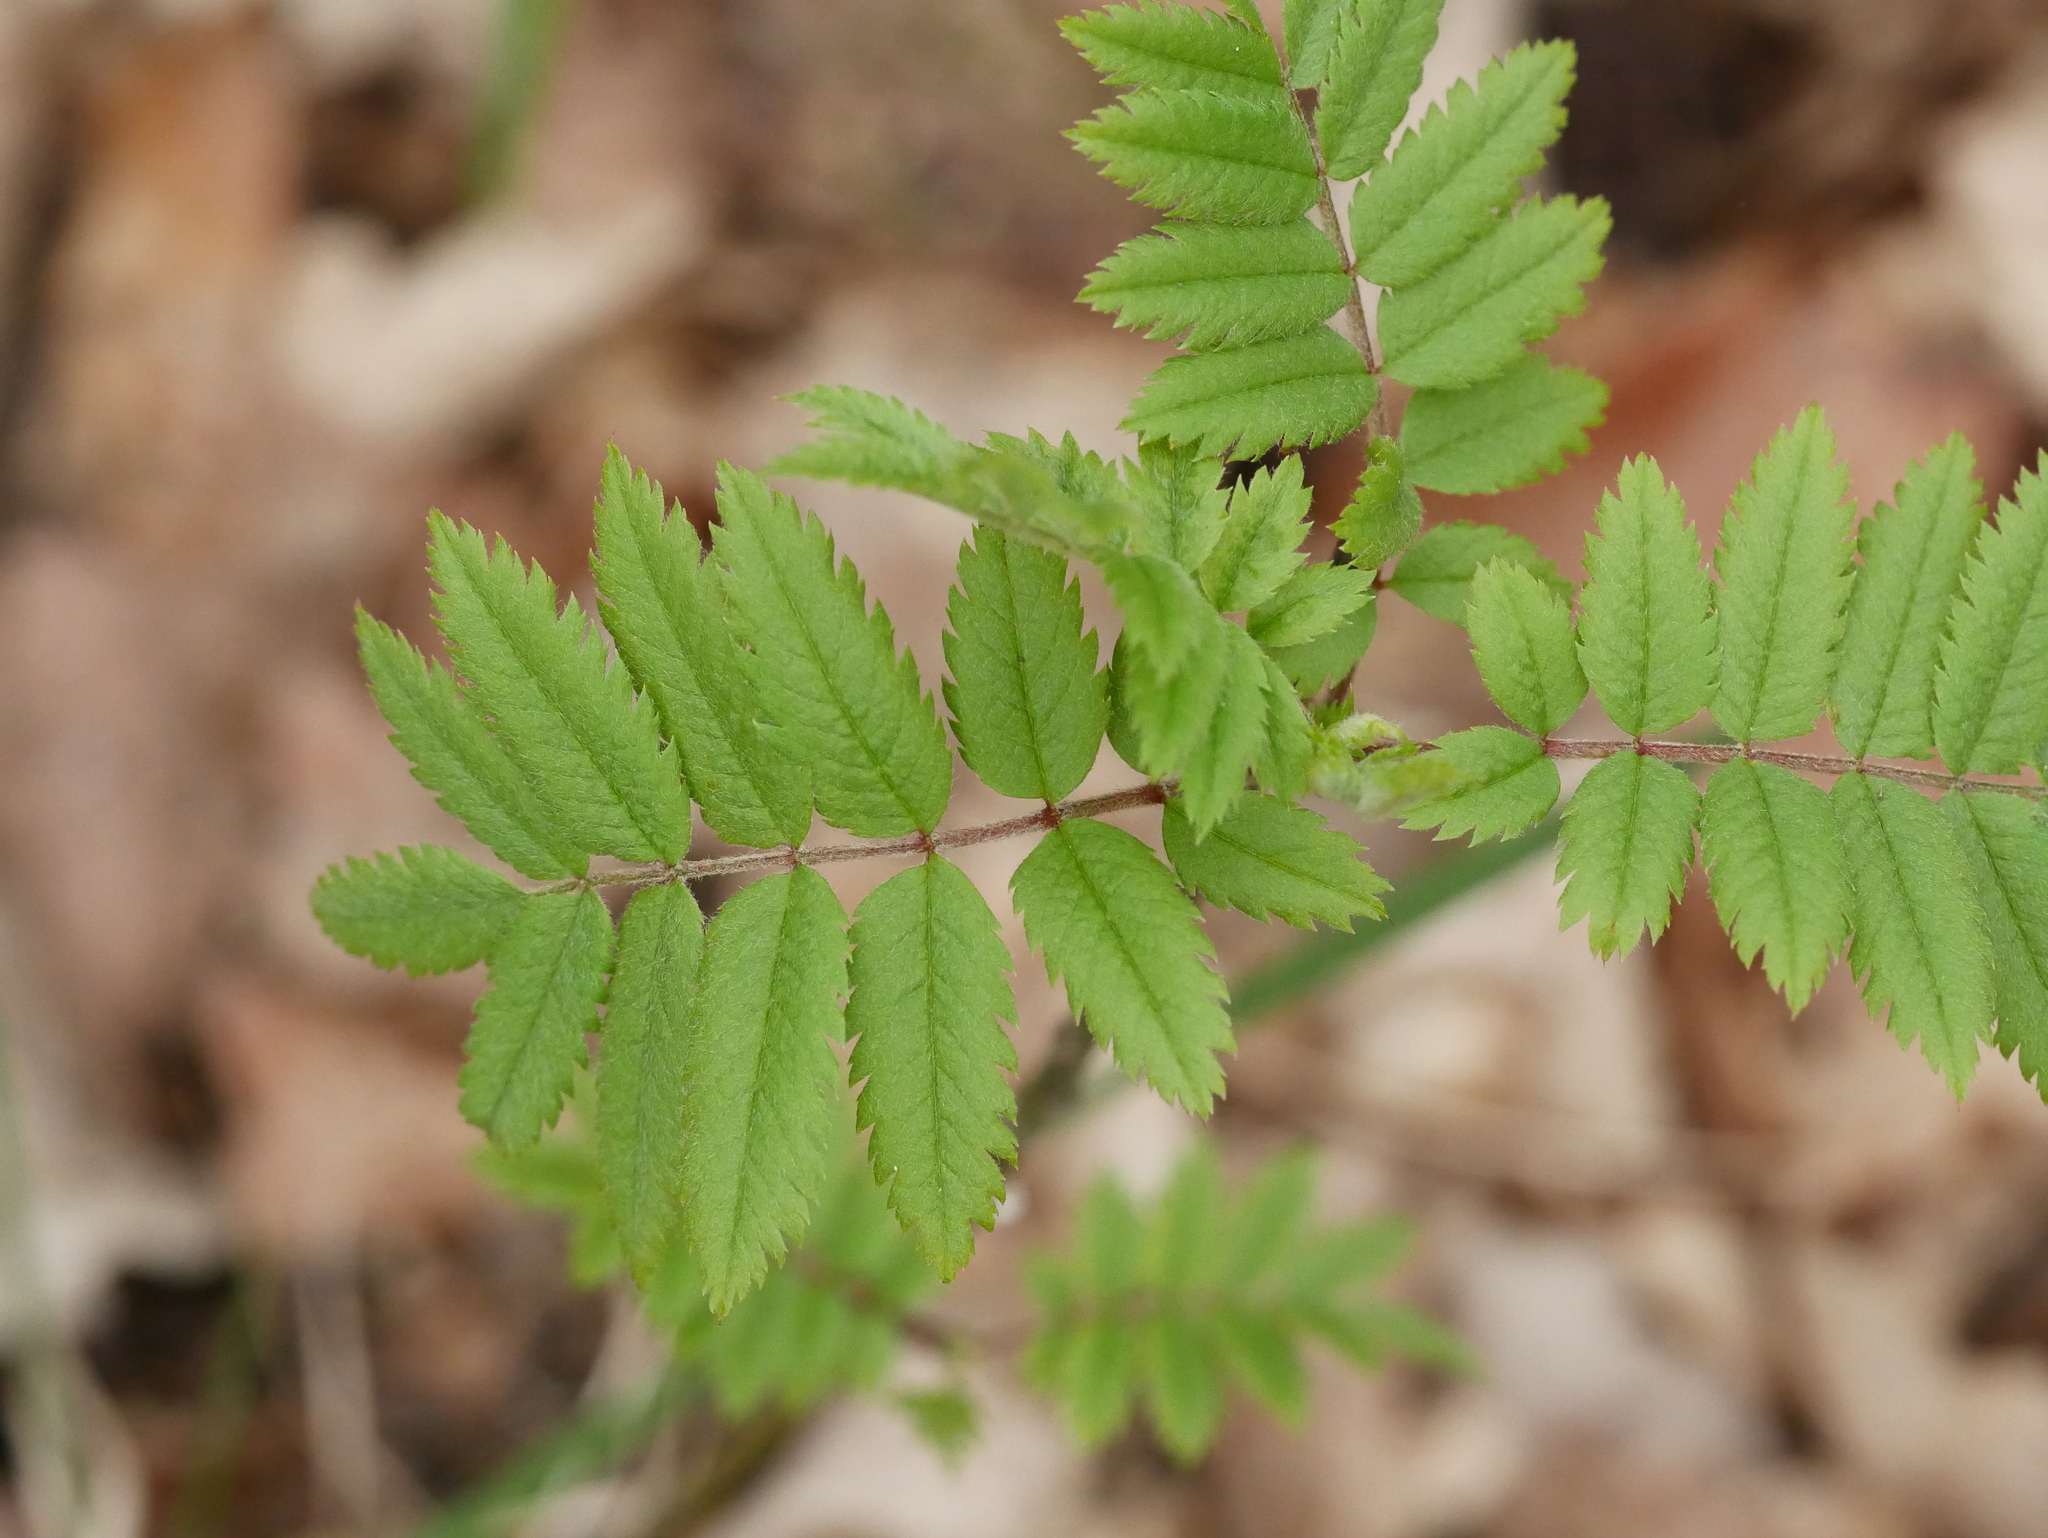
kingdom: Plantae
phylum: Tracheophyta
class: Magnoliopsida
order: Rosales
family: Rosaceae
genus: Sorbus
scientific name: Sorbus aucuparia
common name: Rowan
